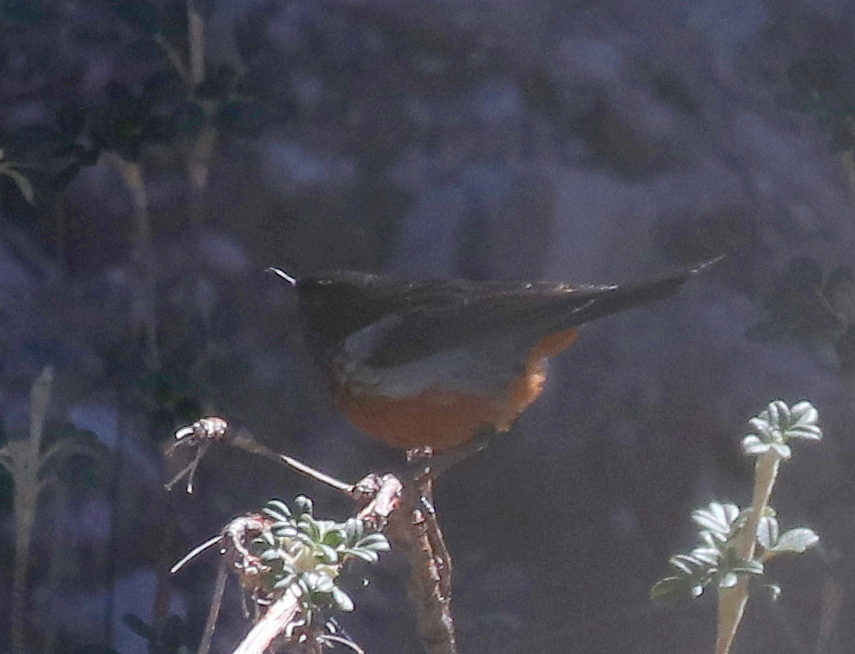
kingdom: Animalia
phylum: Chordata
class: Aves
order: Passeriformes
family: Thraupidae
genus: Diglossa
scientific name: Diglossa brunneiventris
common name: Black-throated flowerpiercer
